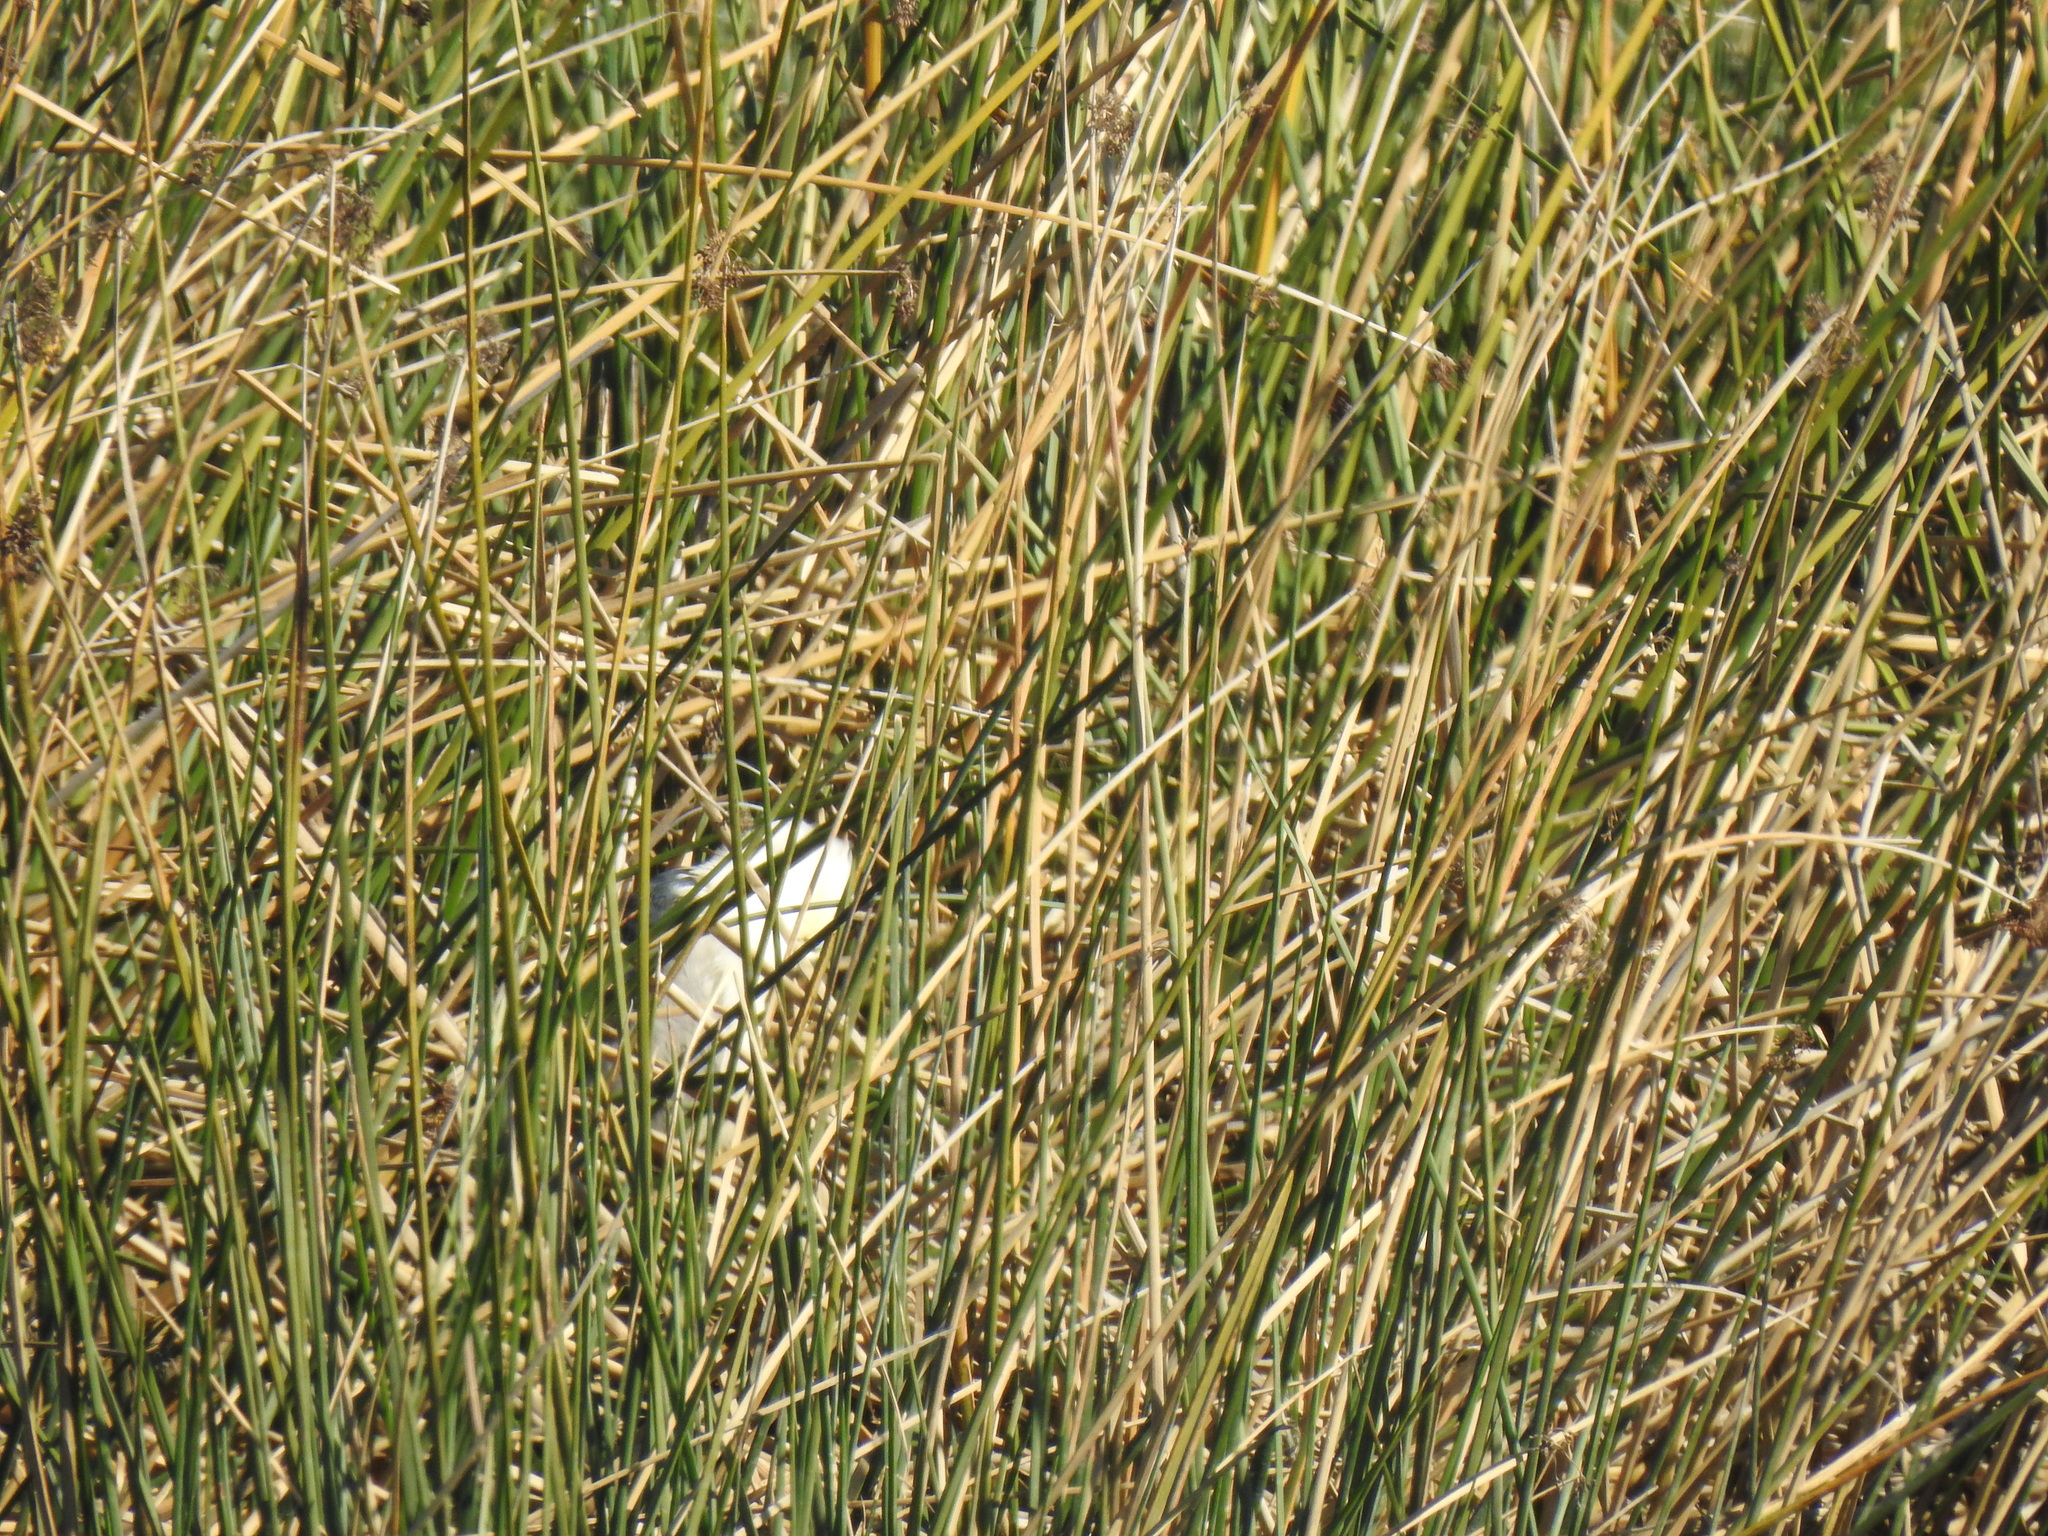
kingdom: Animalia
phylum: Chordata
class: Aves
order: Pelecaniformes
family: Ardeidae
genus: Nycticorax
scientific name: Nycticorax nycticorax
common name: Black-crowned night heron
